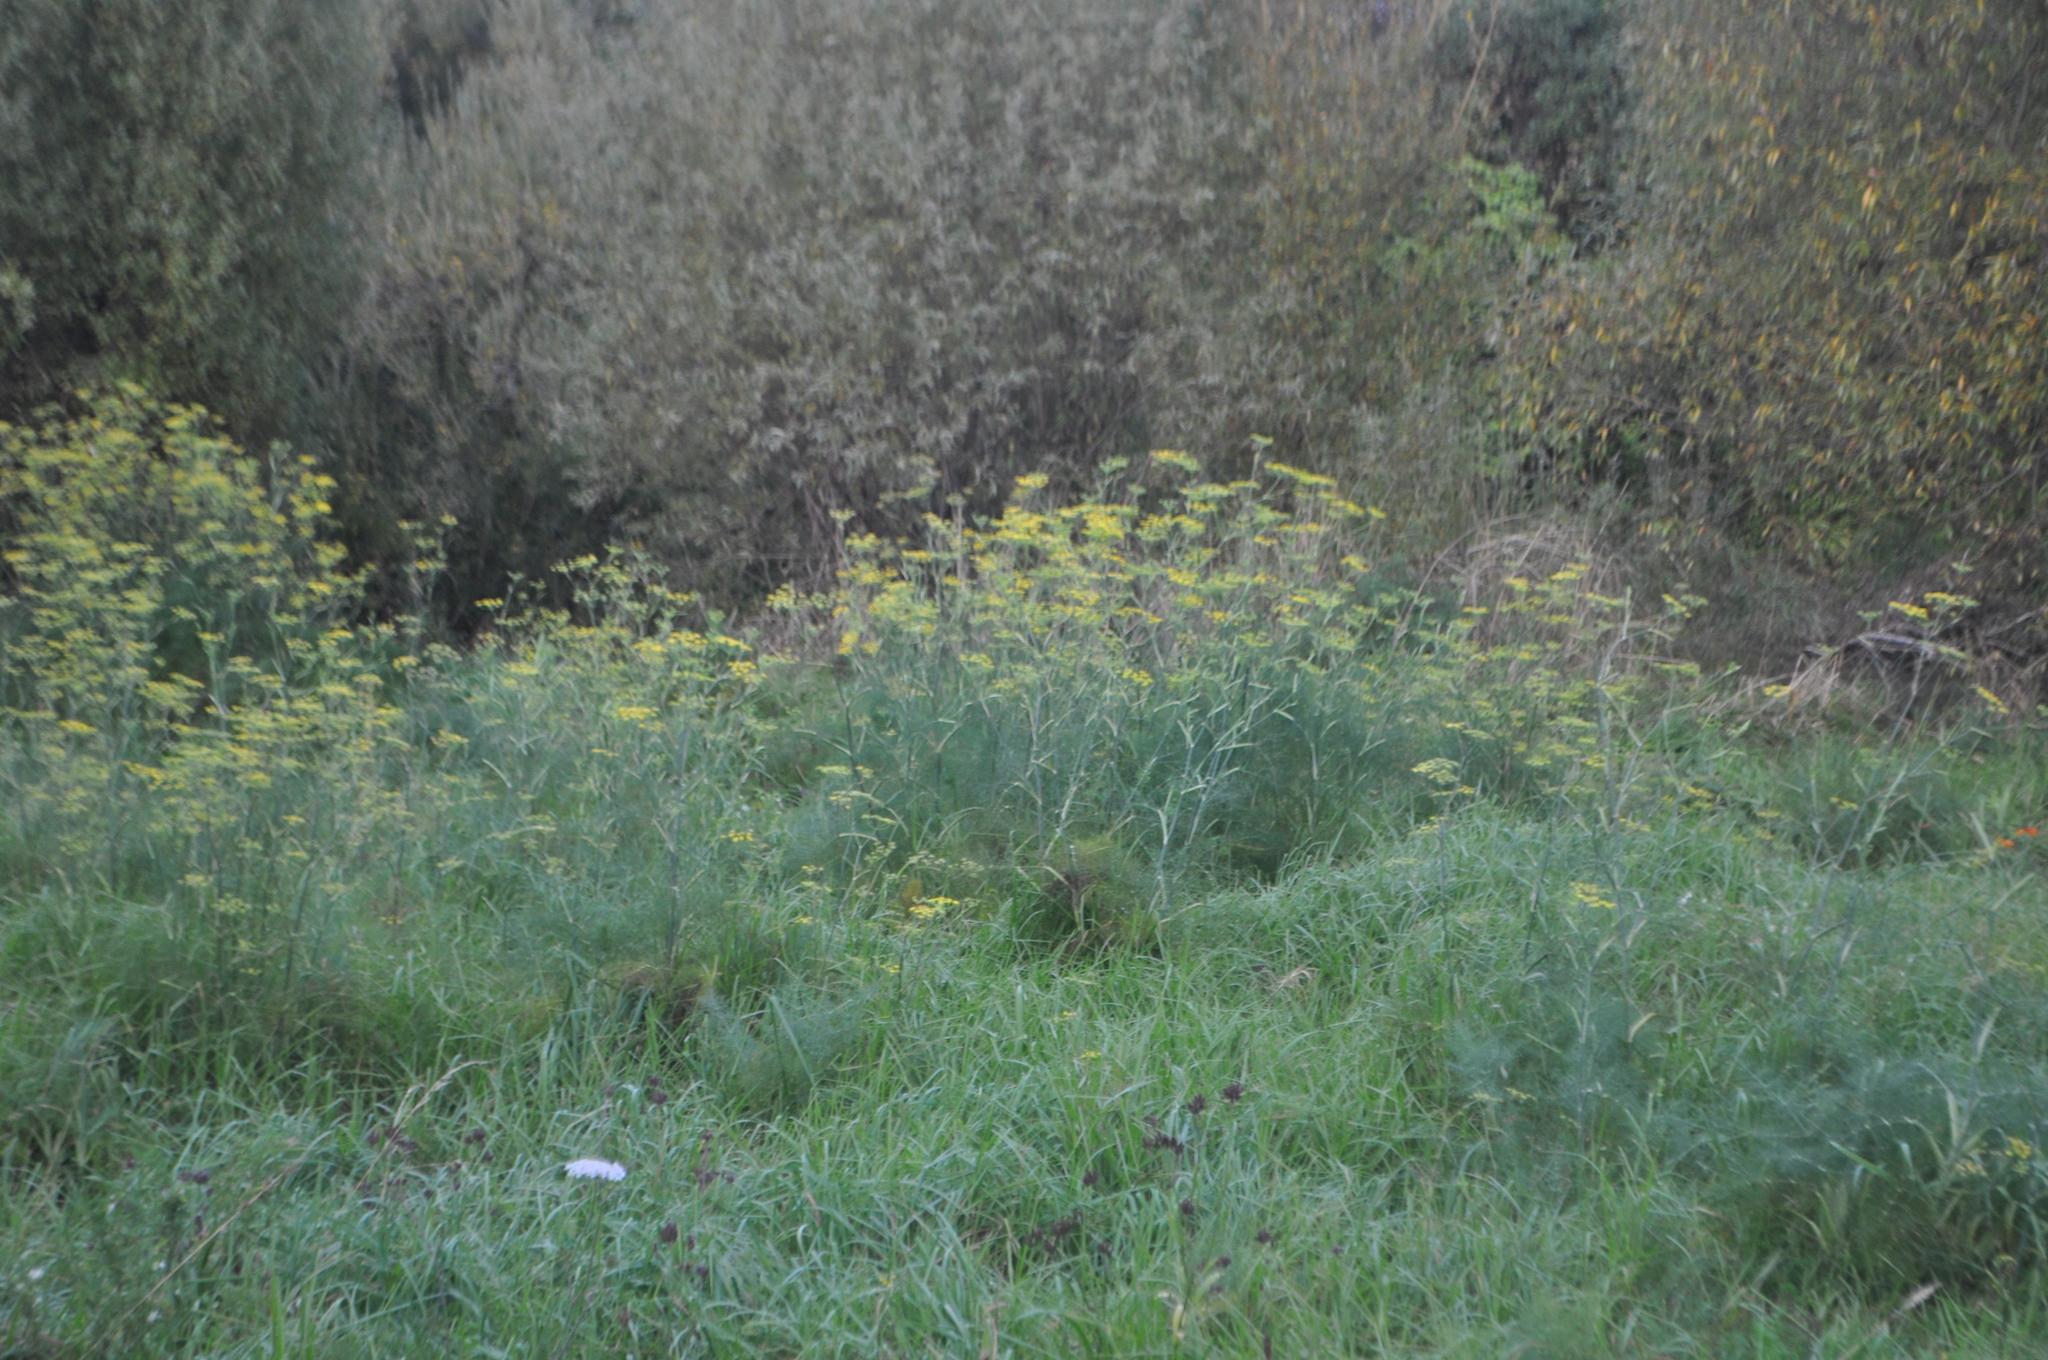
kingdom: Plantae
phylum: Tracheophyta
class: Magnoliopsida
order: Apiales
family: Apiaceae
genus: Foeniculum
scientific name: Foeniculum vulgare
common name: Fennel
